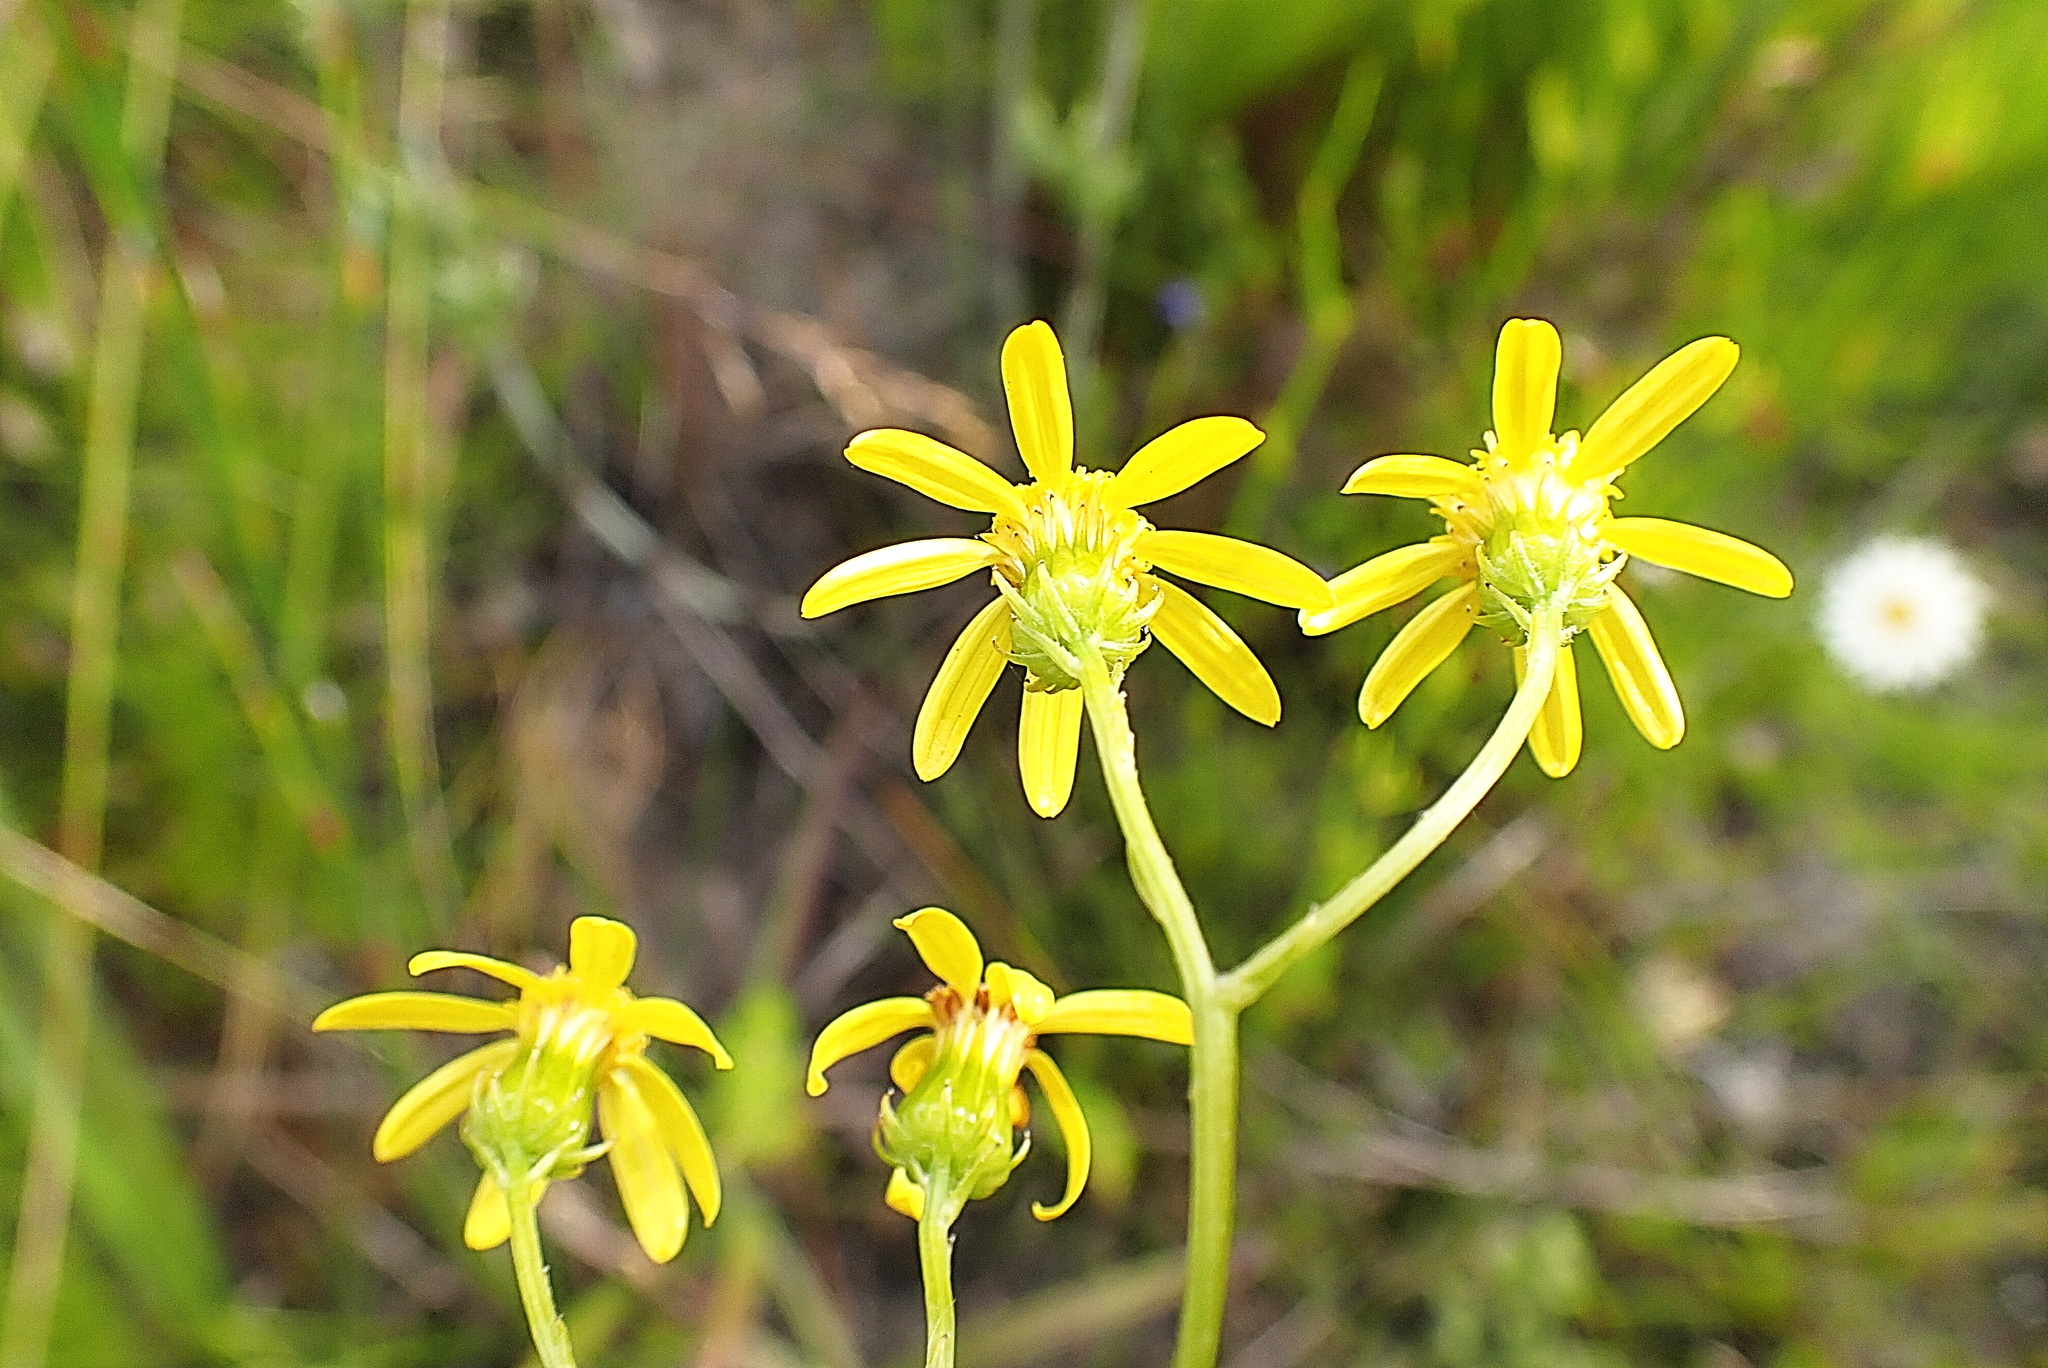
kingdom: Plantae
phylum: Tracheophyta
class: Magnoliopsida
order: Asterales
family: Asteraceae
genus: Senecio
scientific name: Senecio ilicifolius
